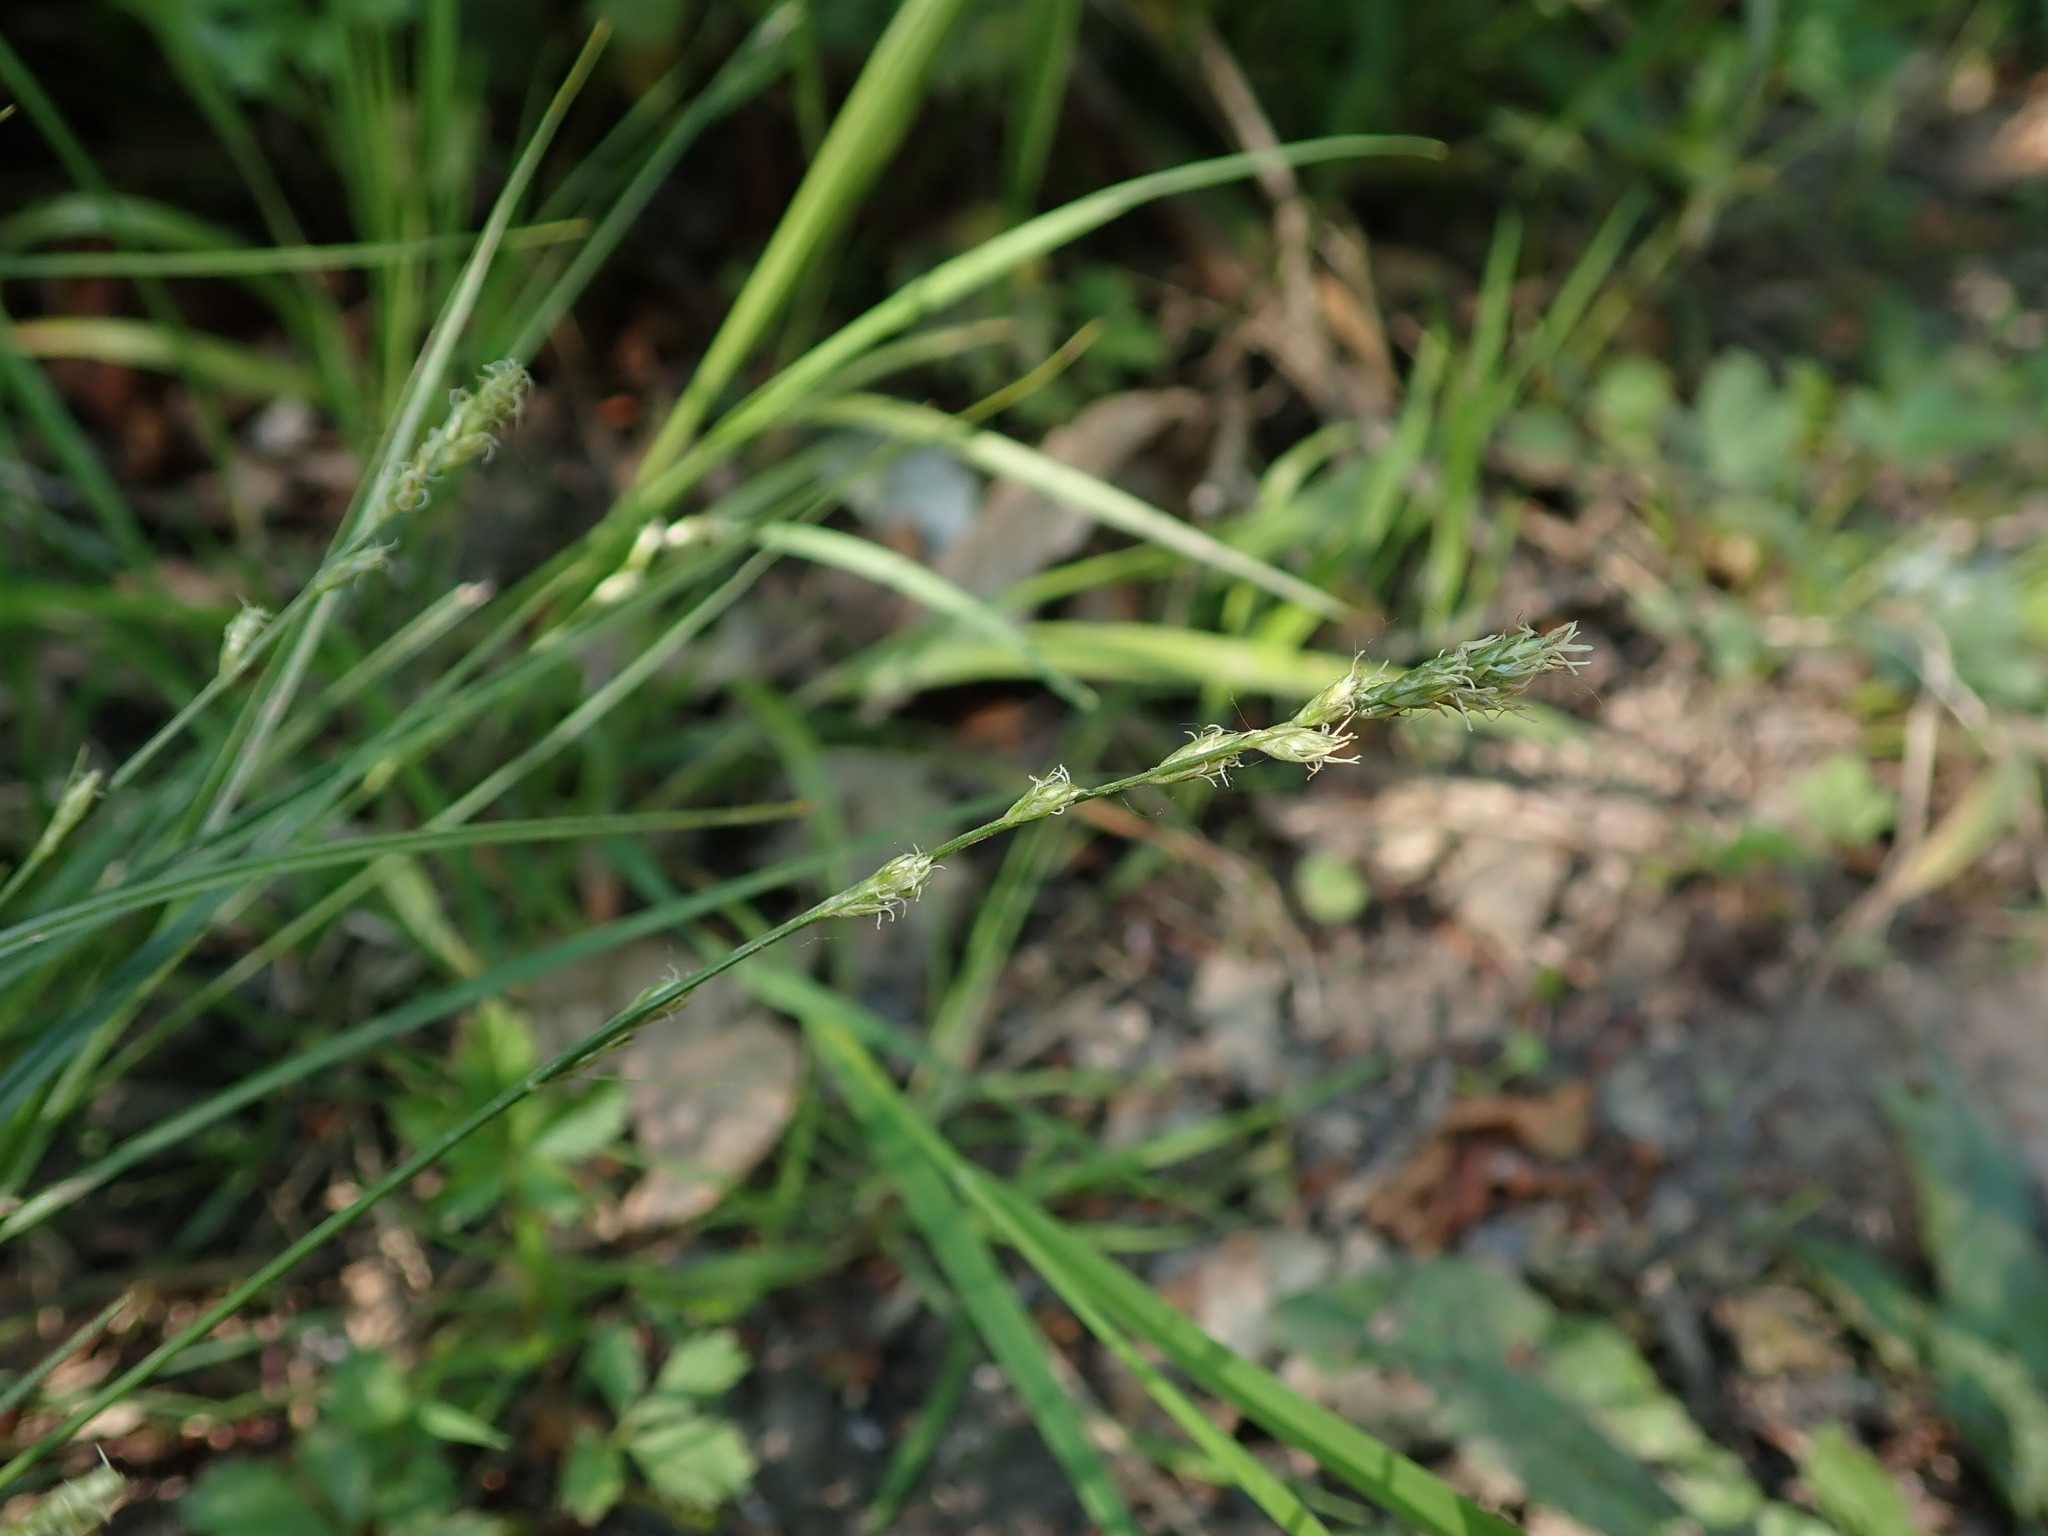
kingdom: Plantae
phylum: Tracheophyta
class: Liliopsida
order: Poales
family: Cyperaceae
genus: Carex
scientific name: Carex divulsa
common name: Grassland sedge
